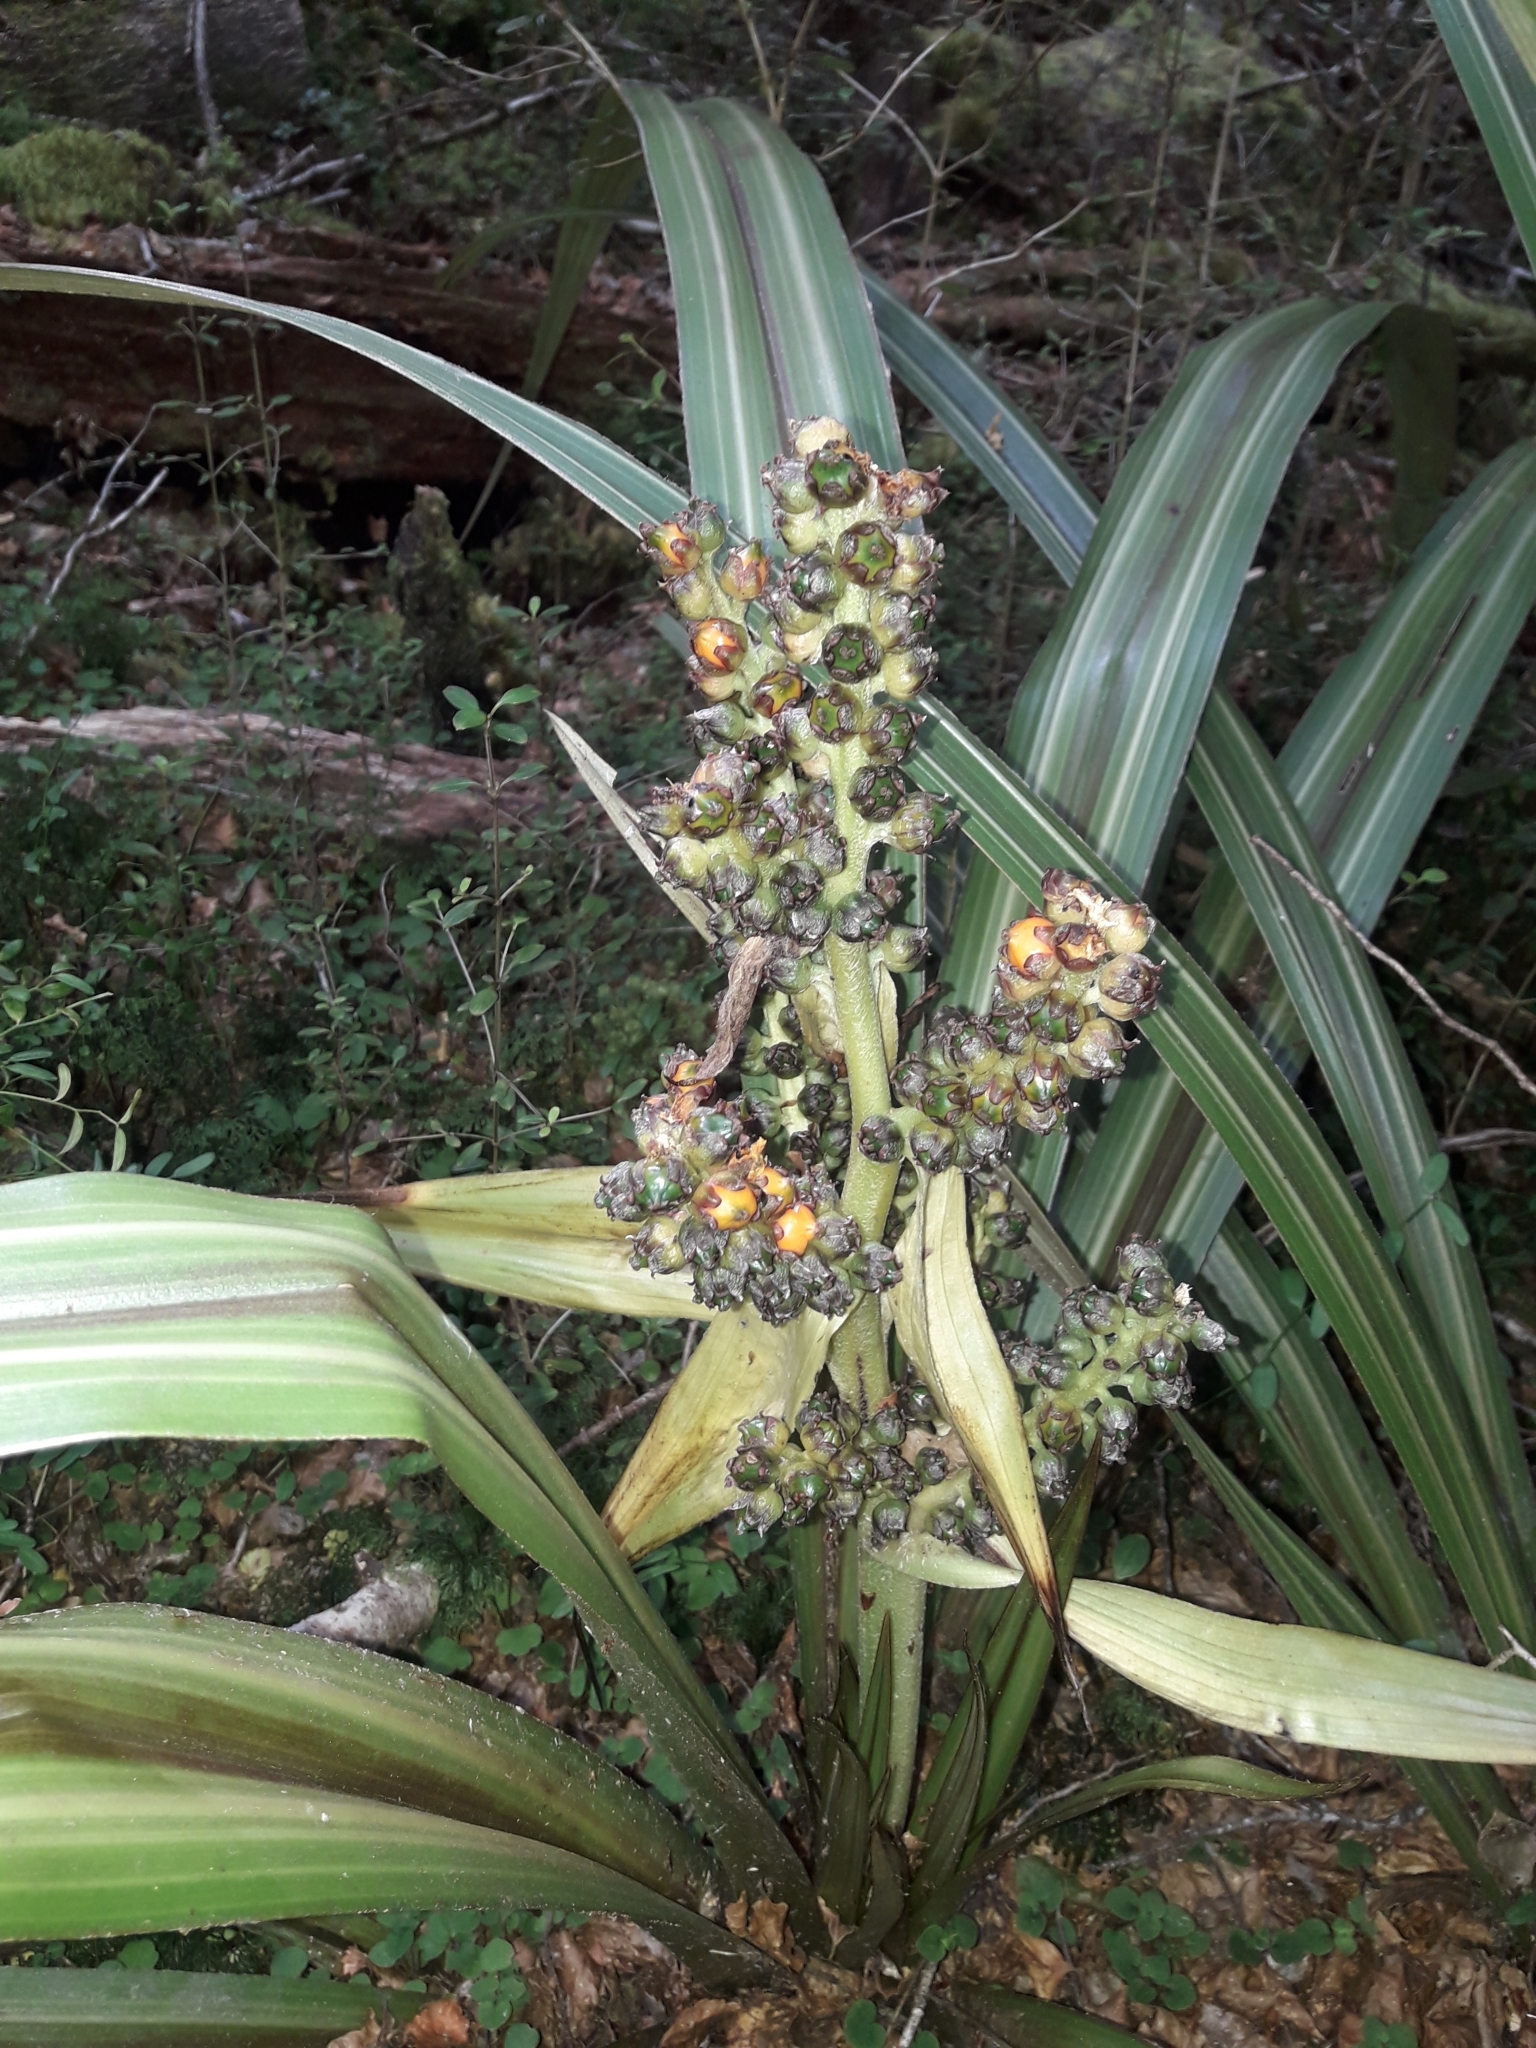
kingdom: Plantae
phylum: Tracheophyta
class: Liliopsida
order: Asparagales
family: Asteliaceae
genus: Astelia
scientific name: Astelia nervosa
